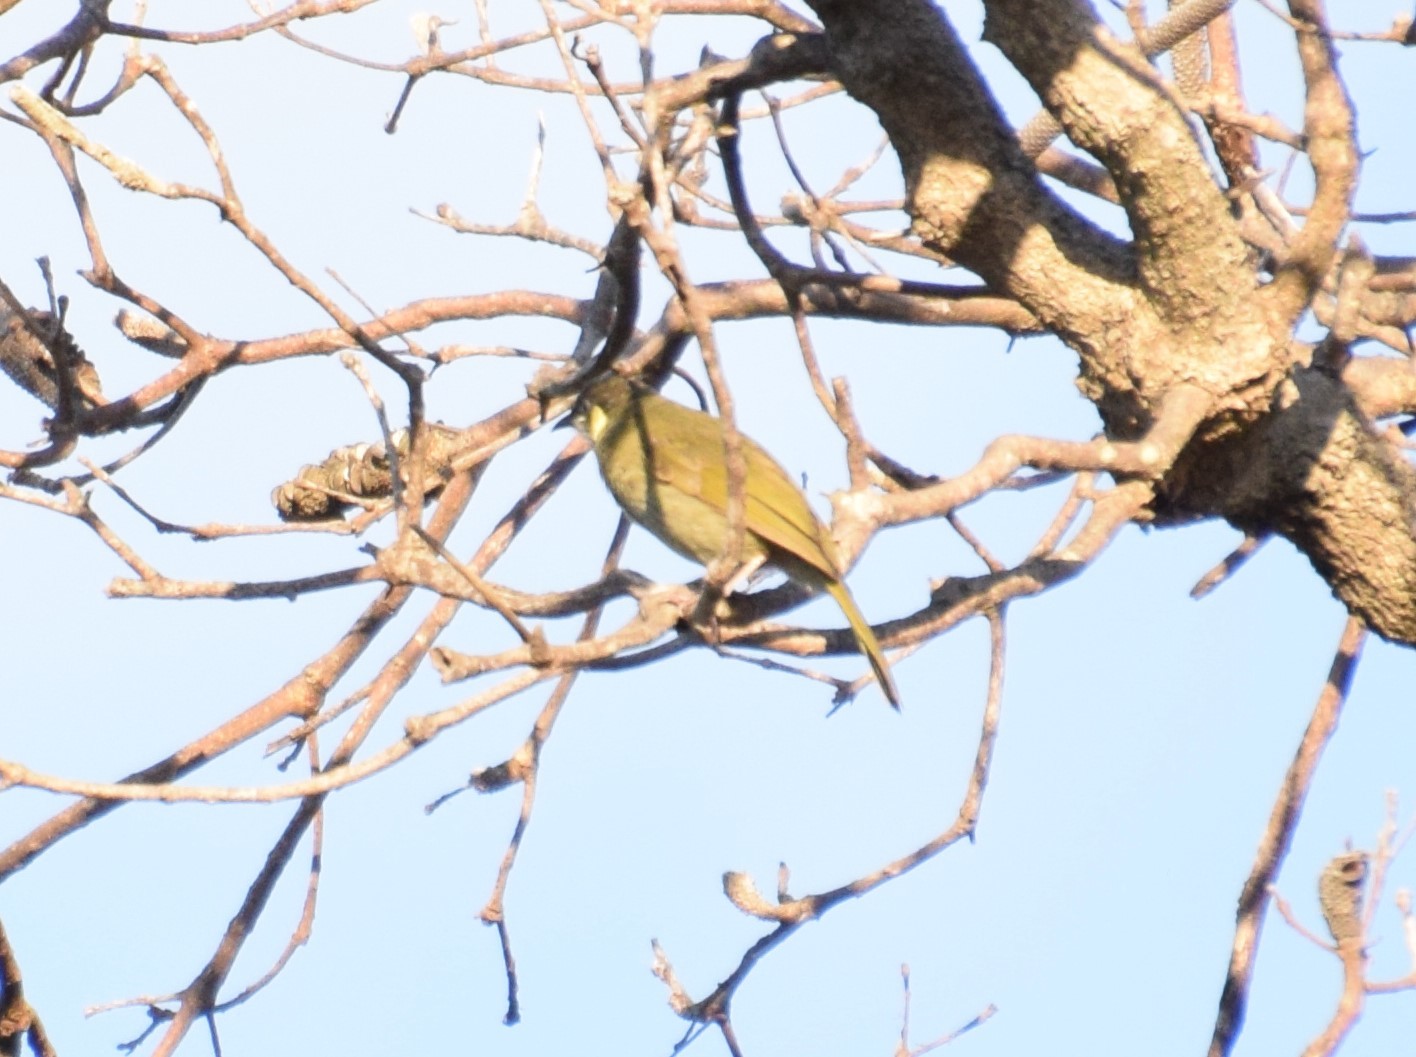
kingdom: Animalia
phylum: Chordata
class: Aves
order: Passeriformes
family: Meliphagidae
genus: Meliphaga
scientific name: Meliphaga lewinii
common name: Lewin's honeyeater
